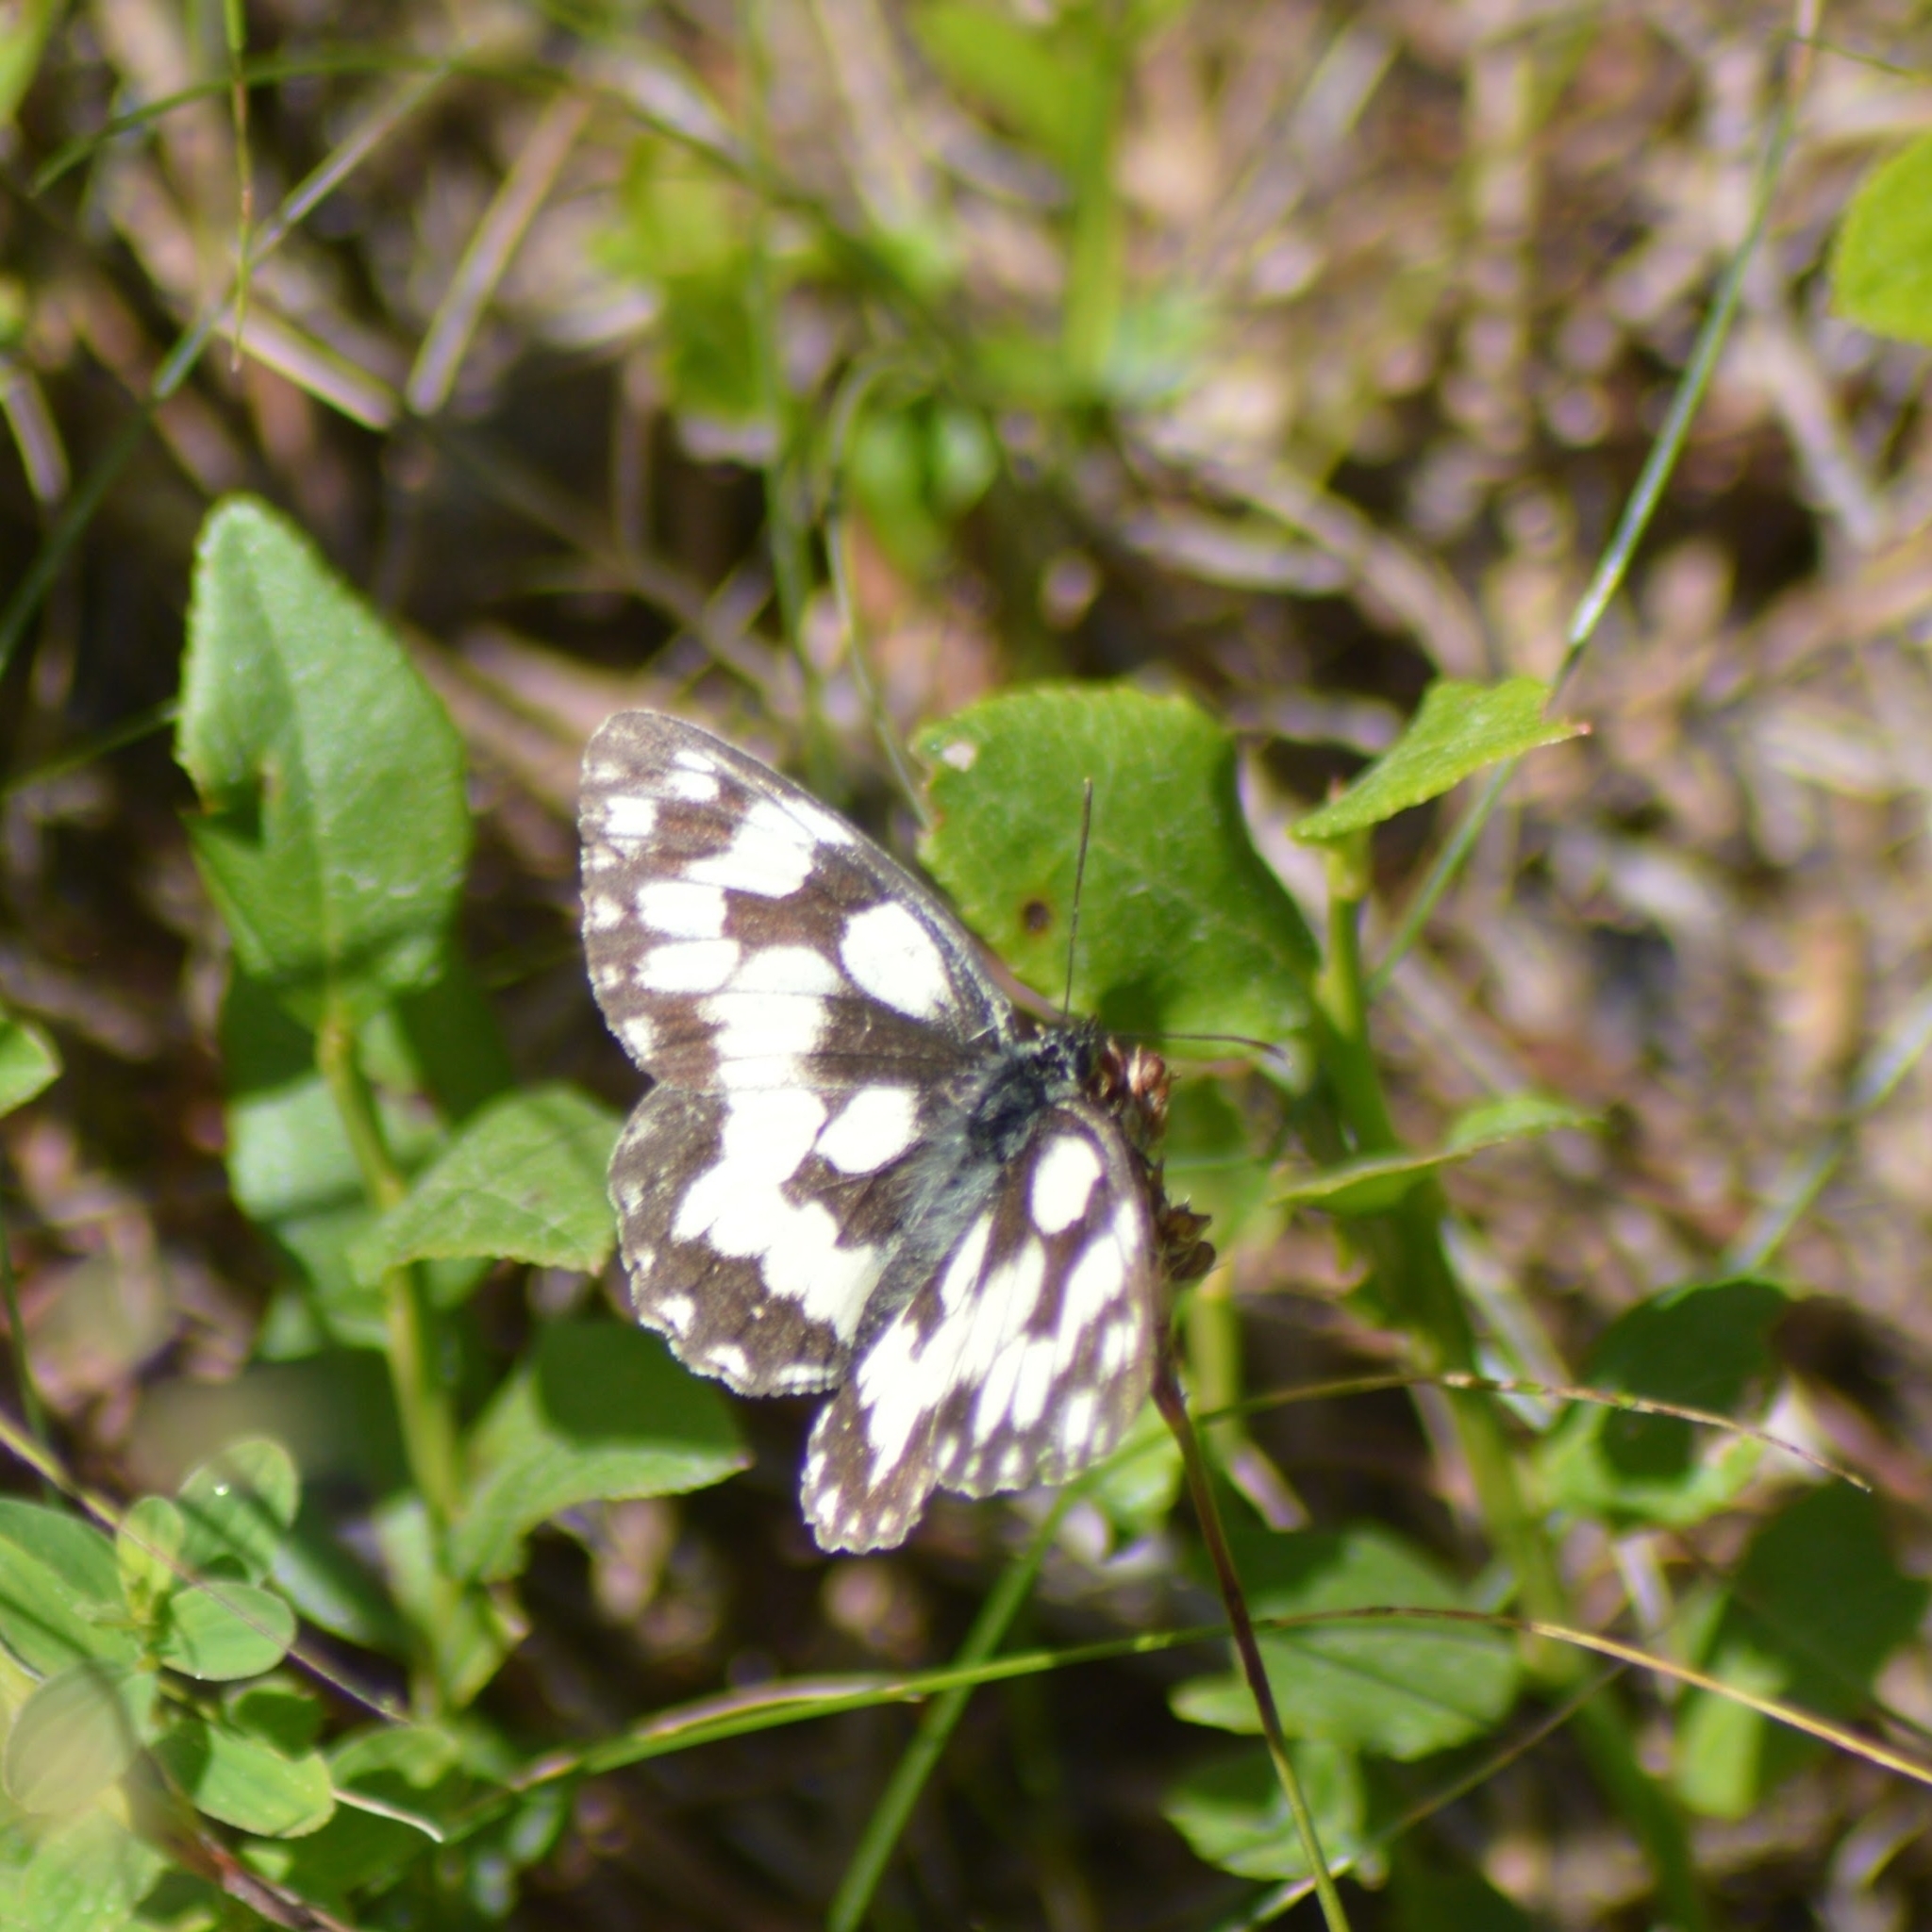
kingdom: Animalia
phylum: Arthropoda
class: Insecta
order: Lepidoptera
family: Nymphalidae
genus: Melanargia
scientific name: Melanargia galathea
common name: Marbled white
